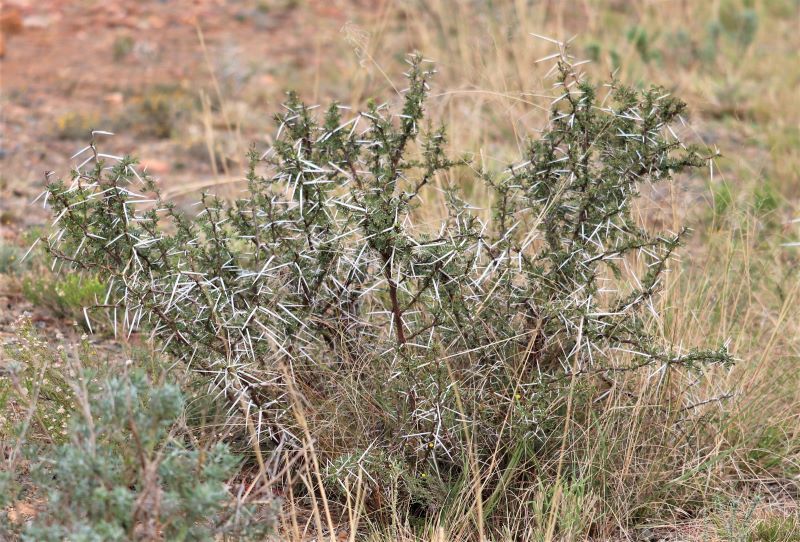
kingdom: Plantae
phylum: Tracheophyta
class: Magnoliopsida
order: Fabales
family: Fabaceae
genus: Vachellia
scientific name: Vachellia karroo
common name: Sweet thorn
